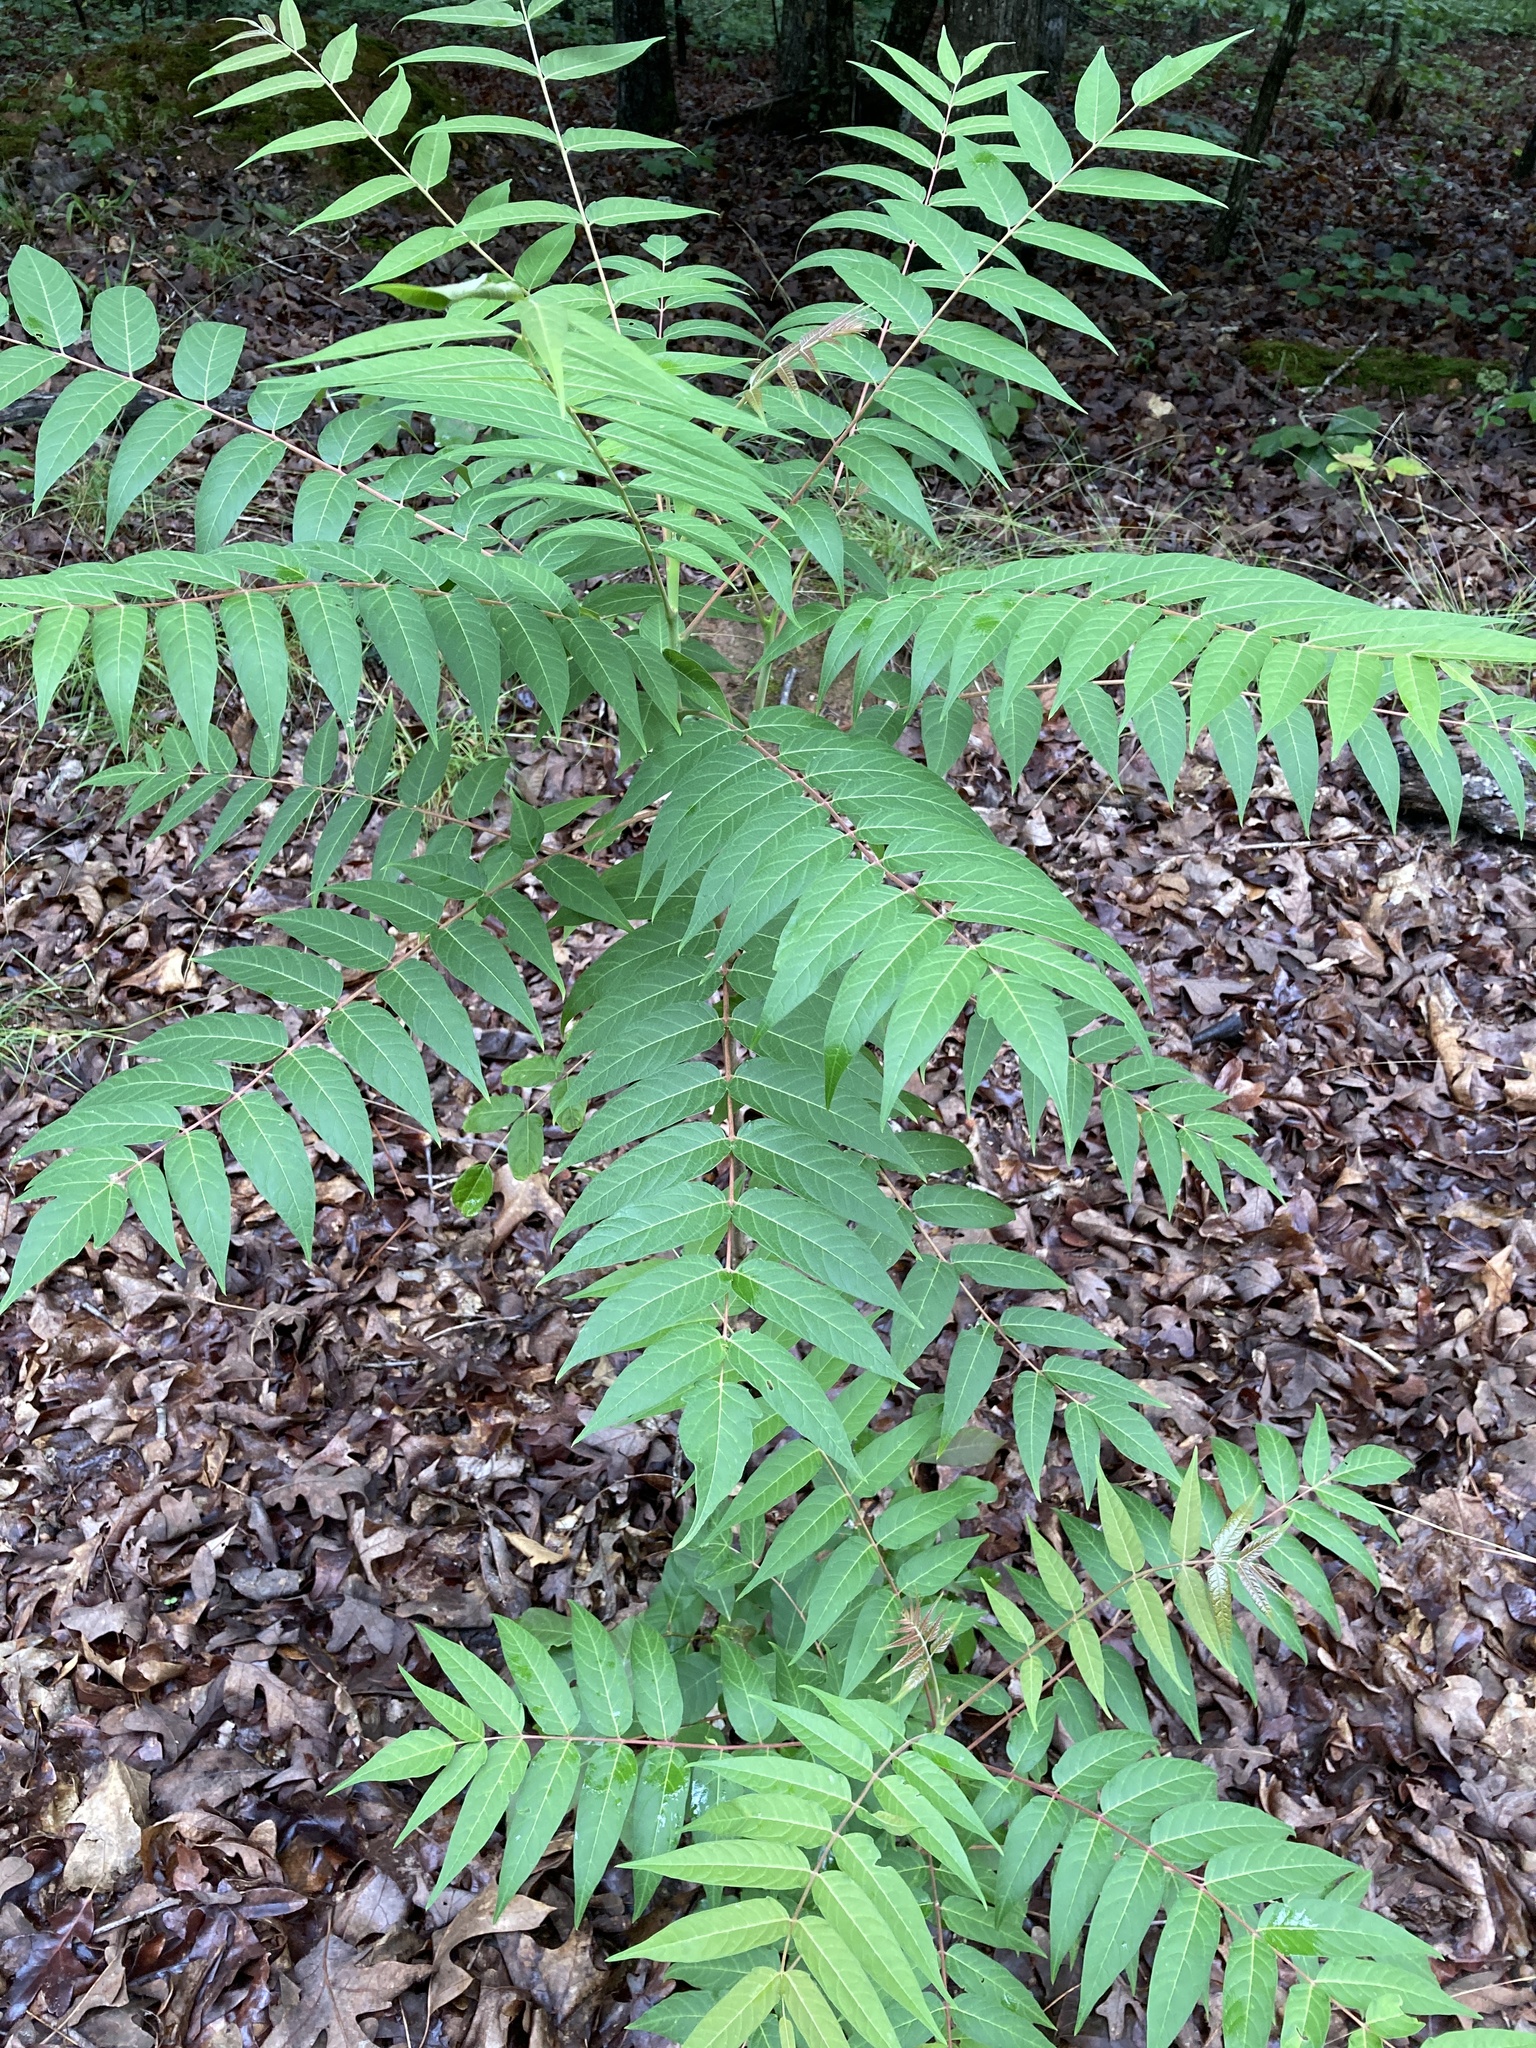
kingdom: Plantae
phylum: Tracheophyta
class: Magnoliopsida
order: Sapindales
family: Simaroubaceae
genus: Ailanthus
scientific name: Ailanthus altissima
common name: Tree-of-heaven
